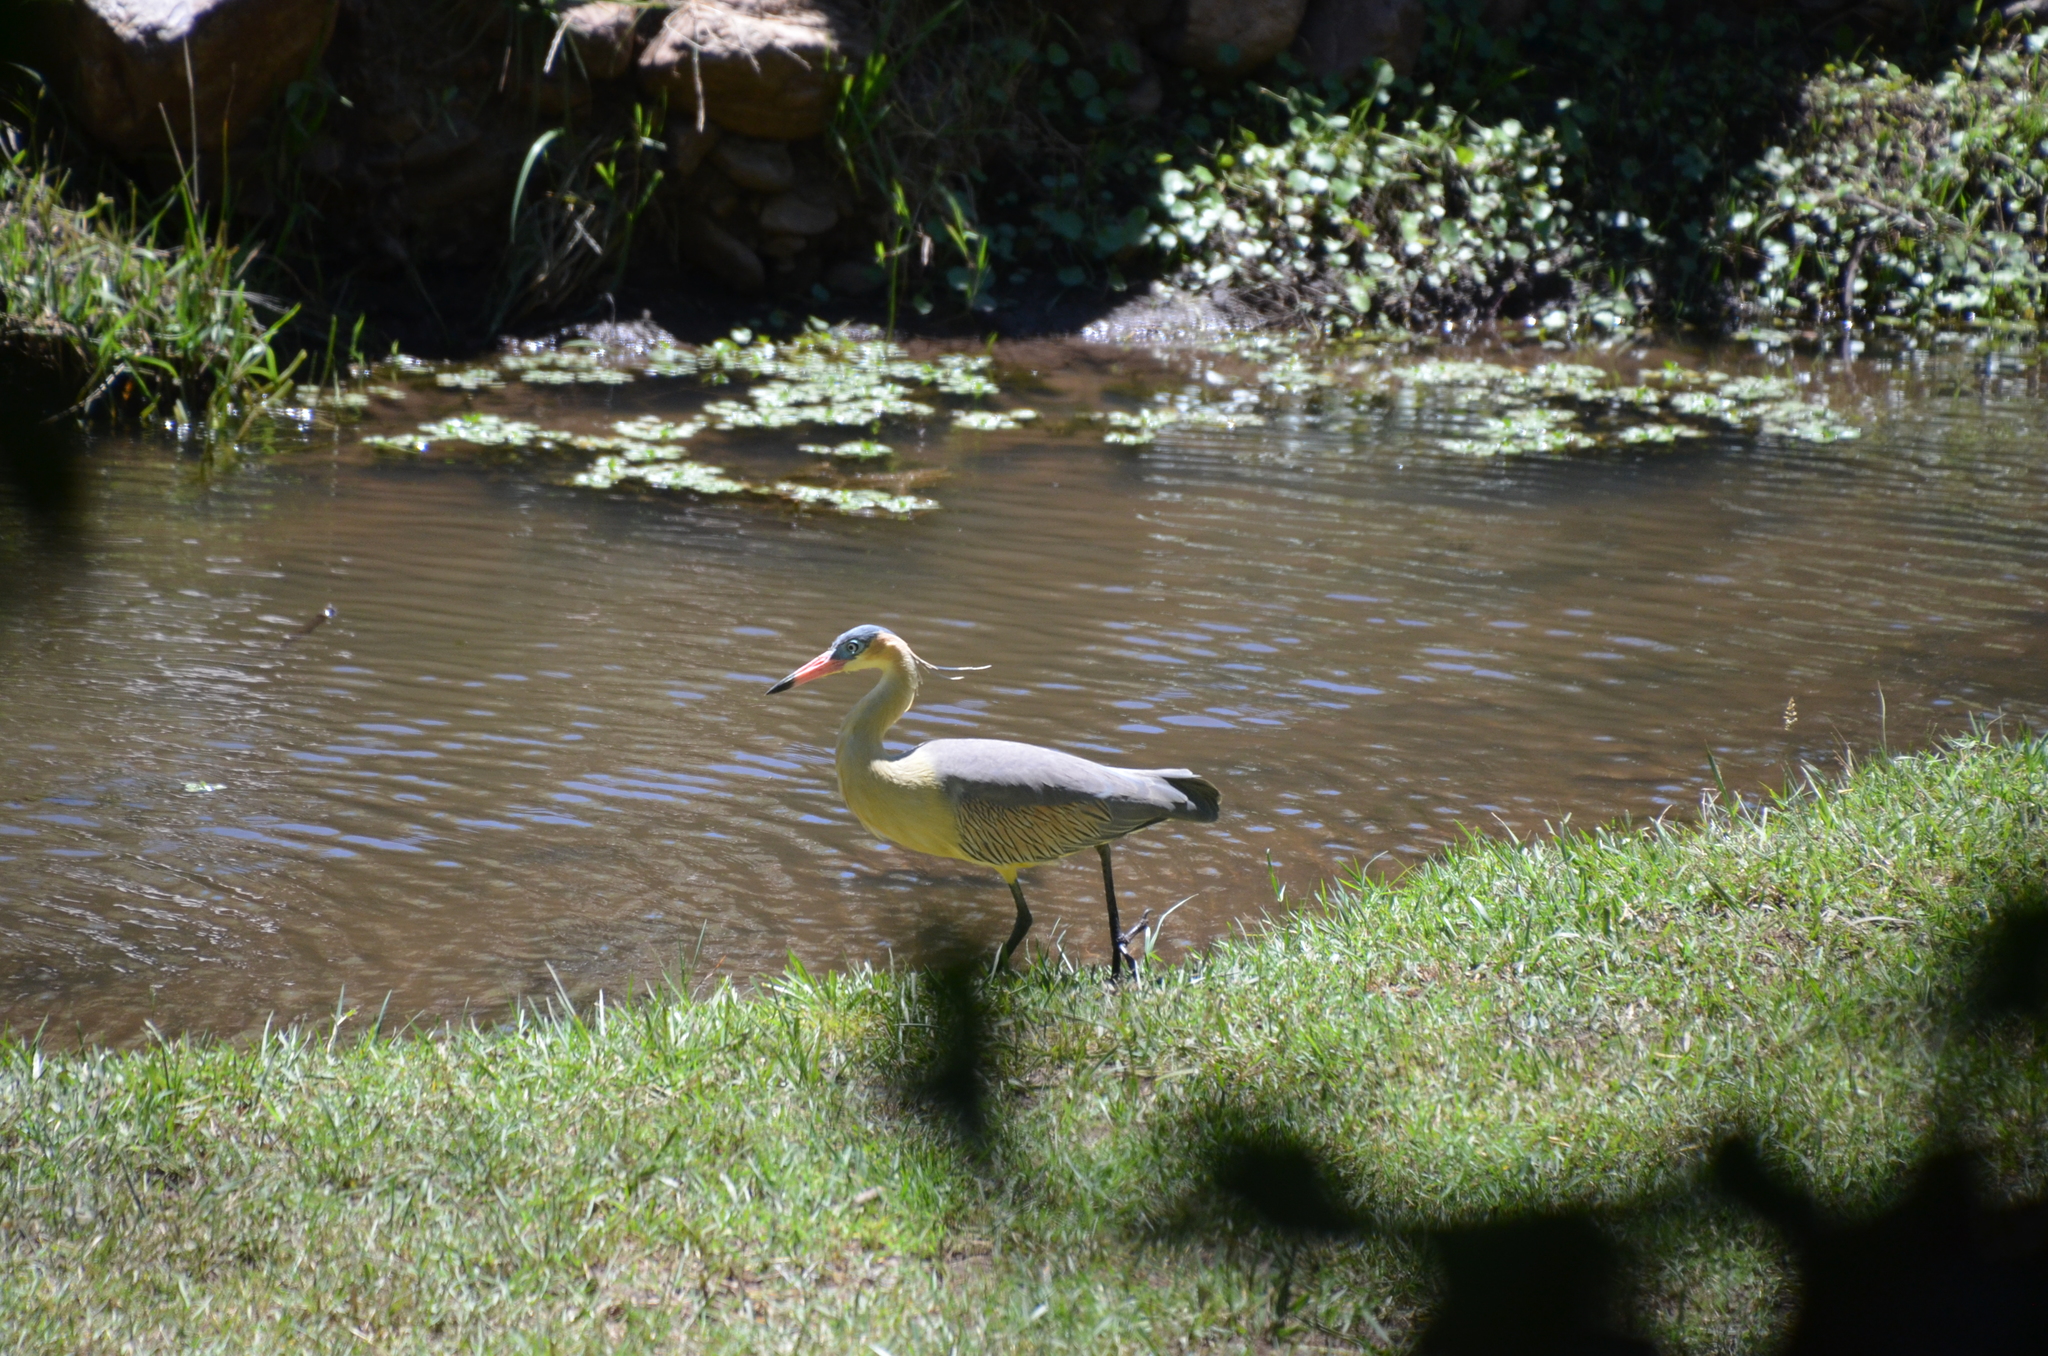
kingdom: Animalia
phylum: Chordata
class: Aves
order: Pelecaniformes
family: Ardeidae
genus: Syrigma
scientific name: Syrigma sibilatrix
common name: Whistling heron
